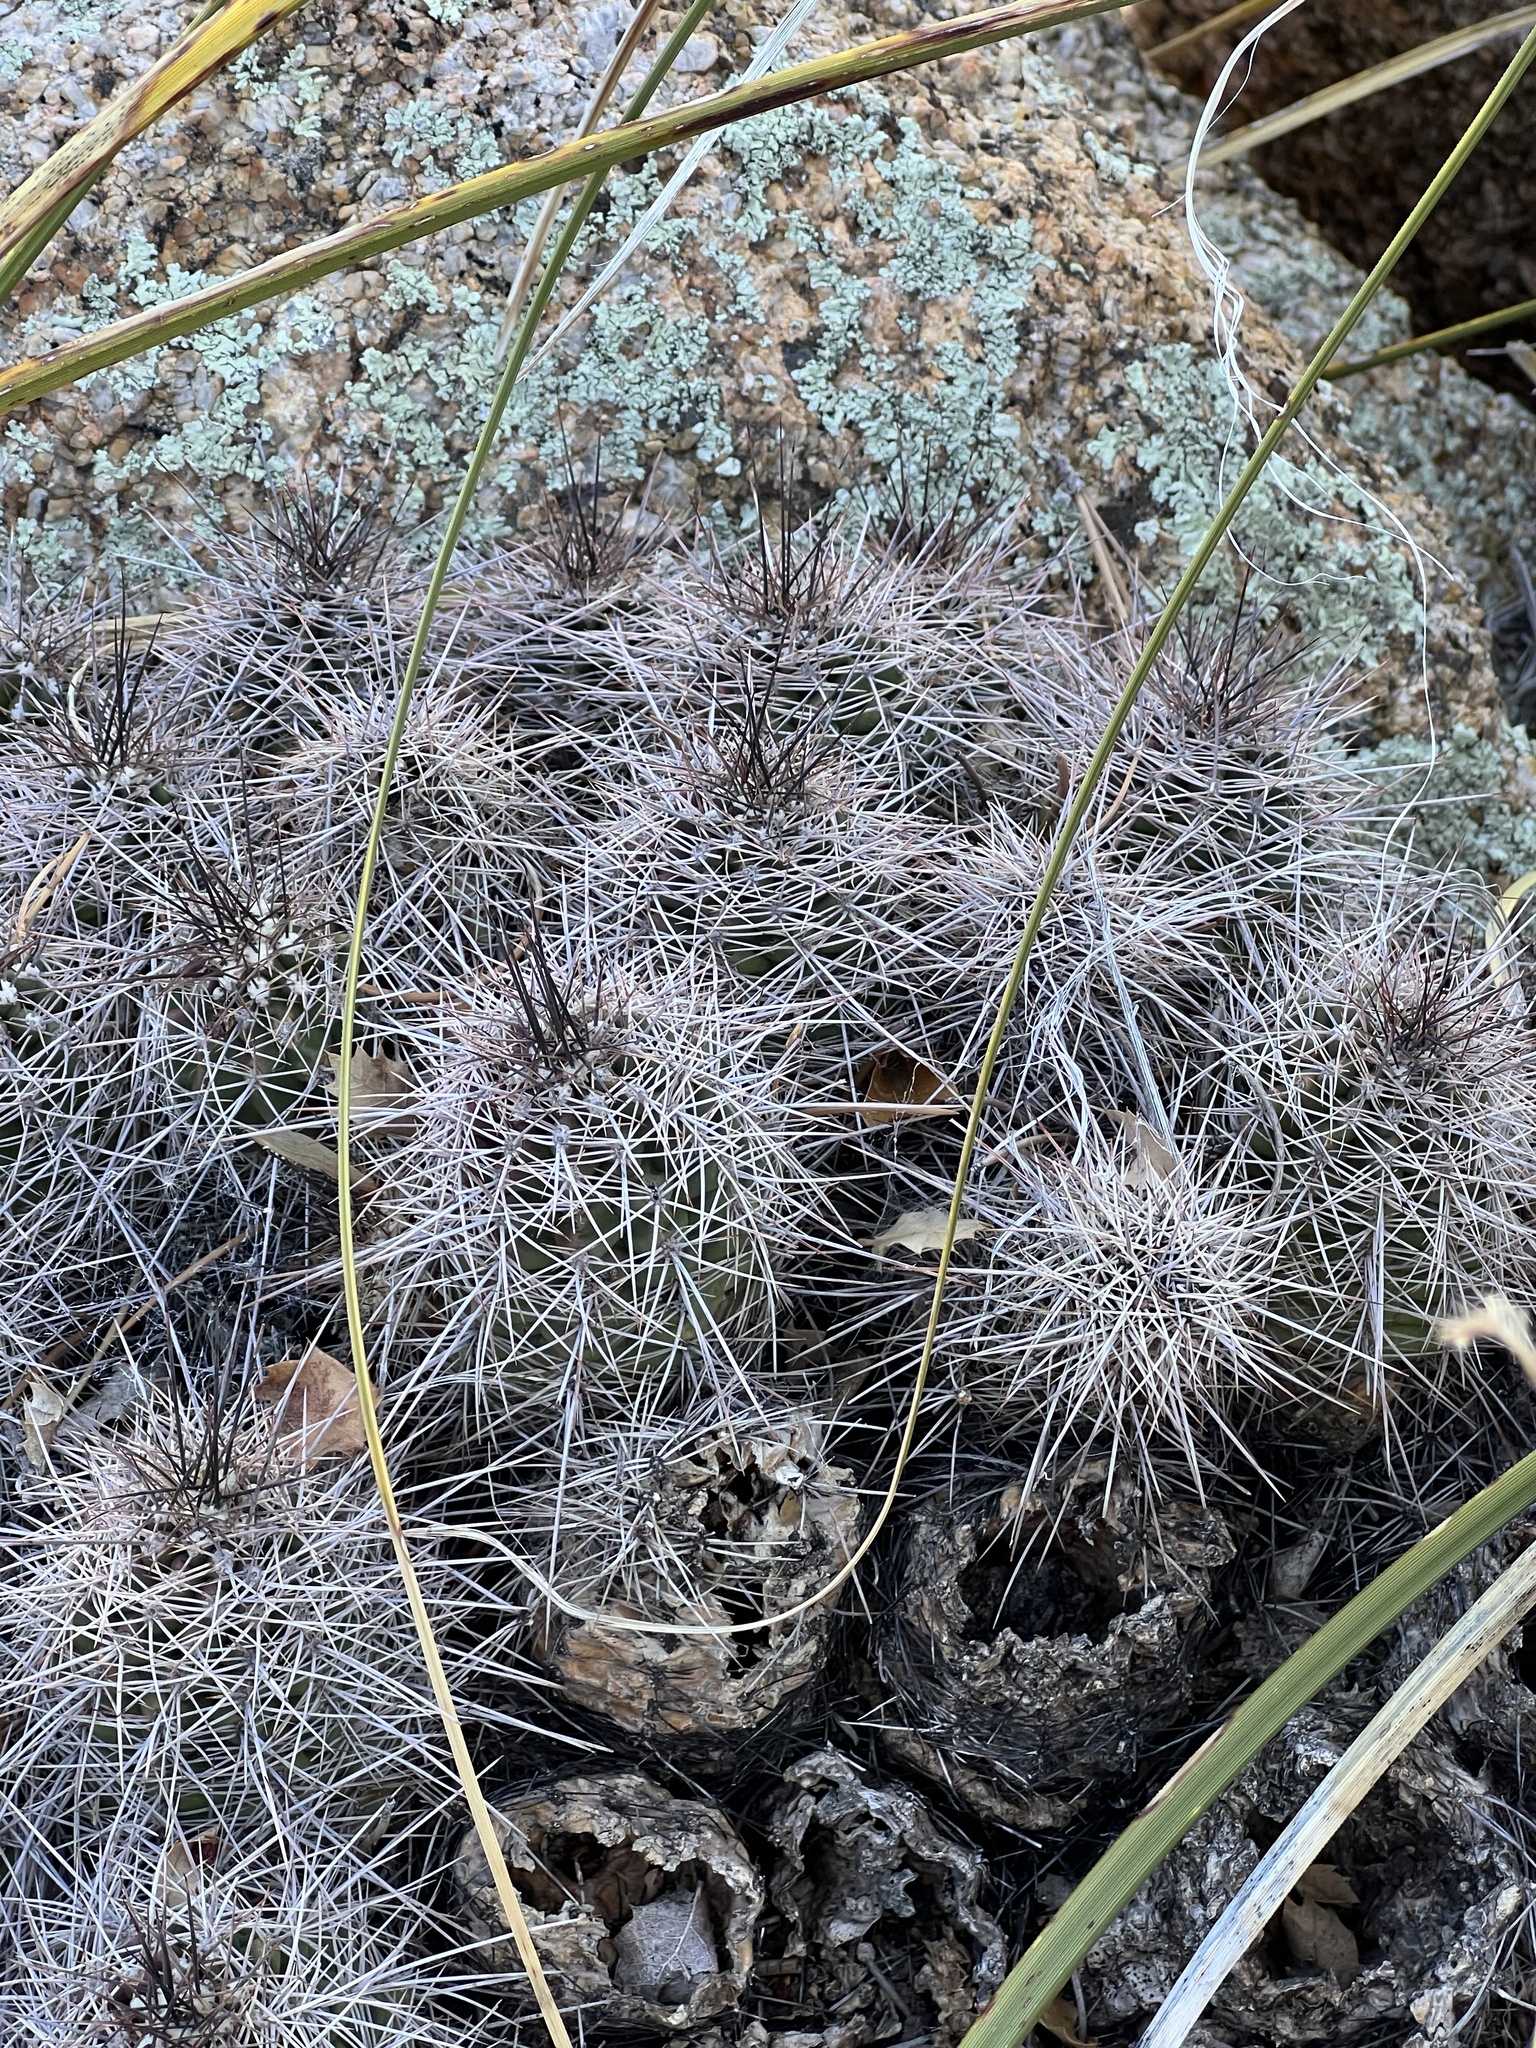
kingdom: Plantae
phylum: Tracheophyta
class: Magnoliopsida
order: Caryophyllales
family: Cactaceae
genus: Echinocereus
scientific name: Echinocereus bakeri
